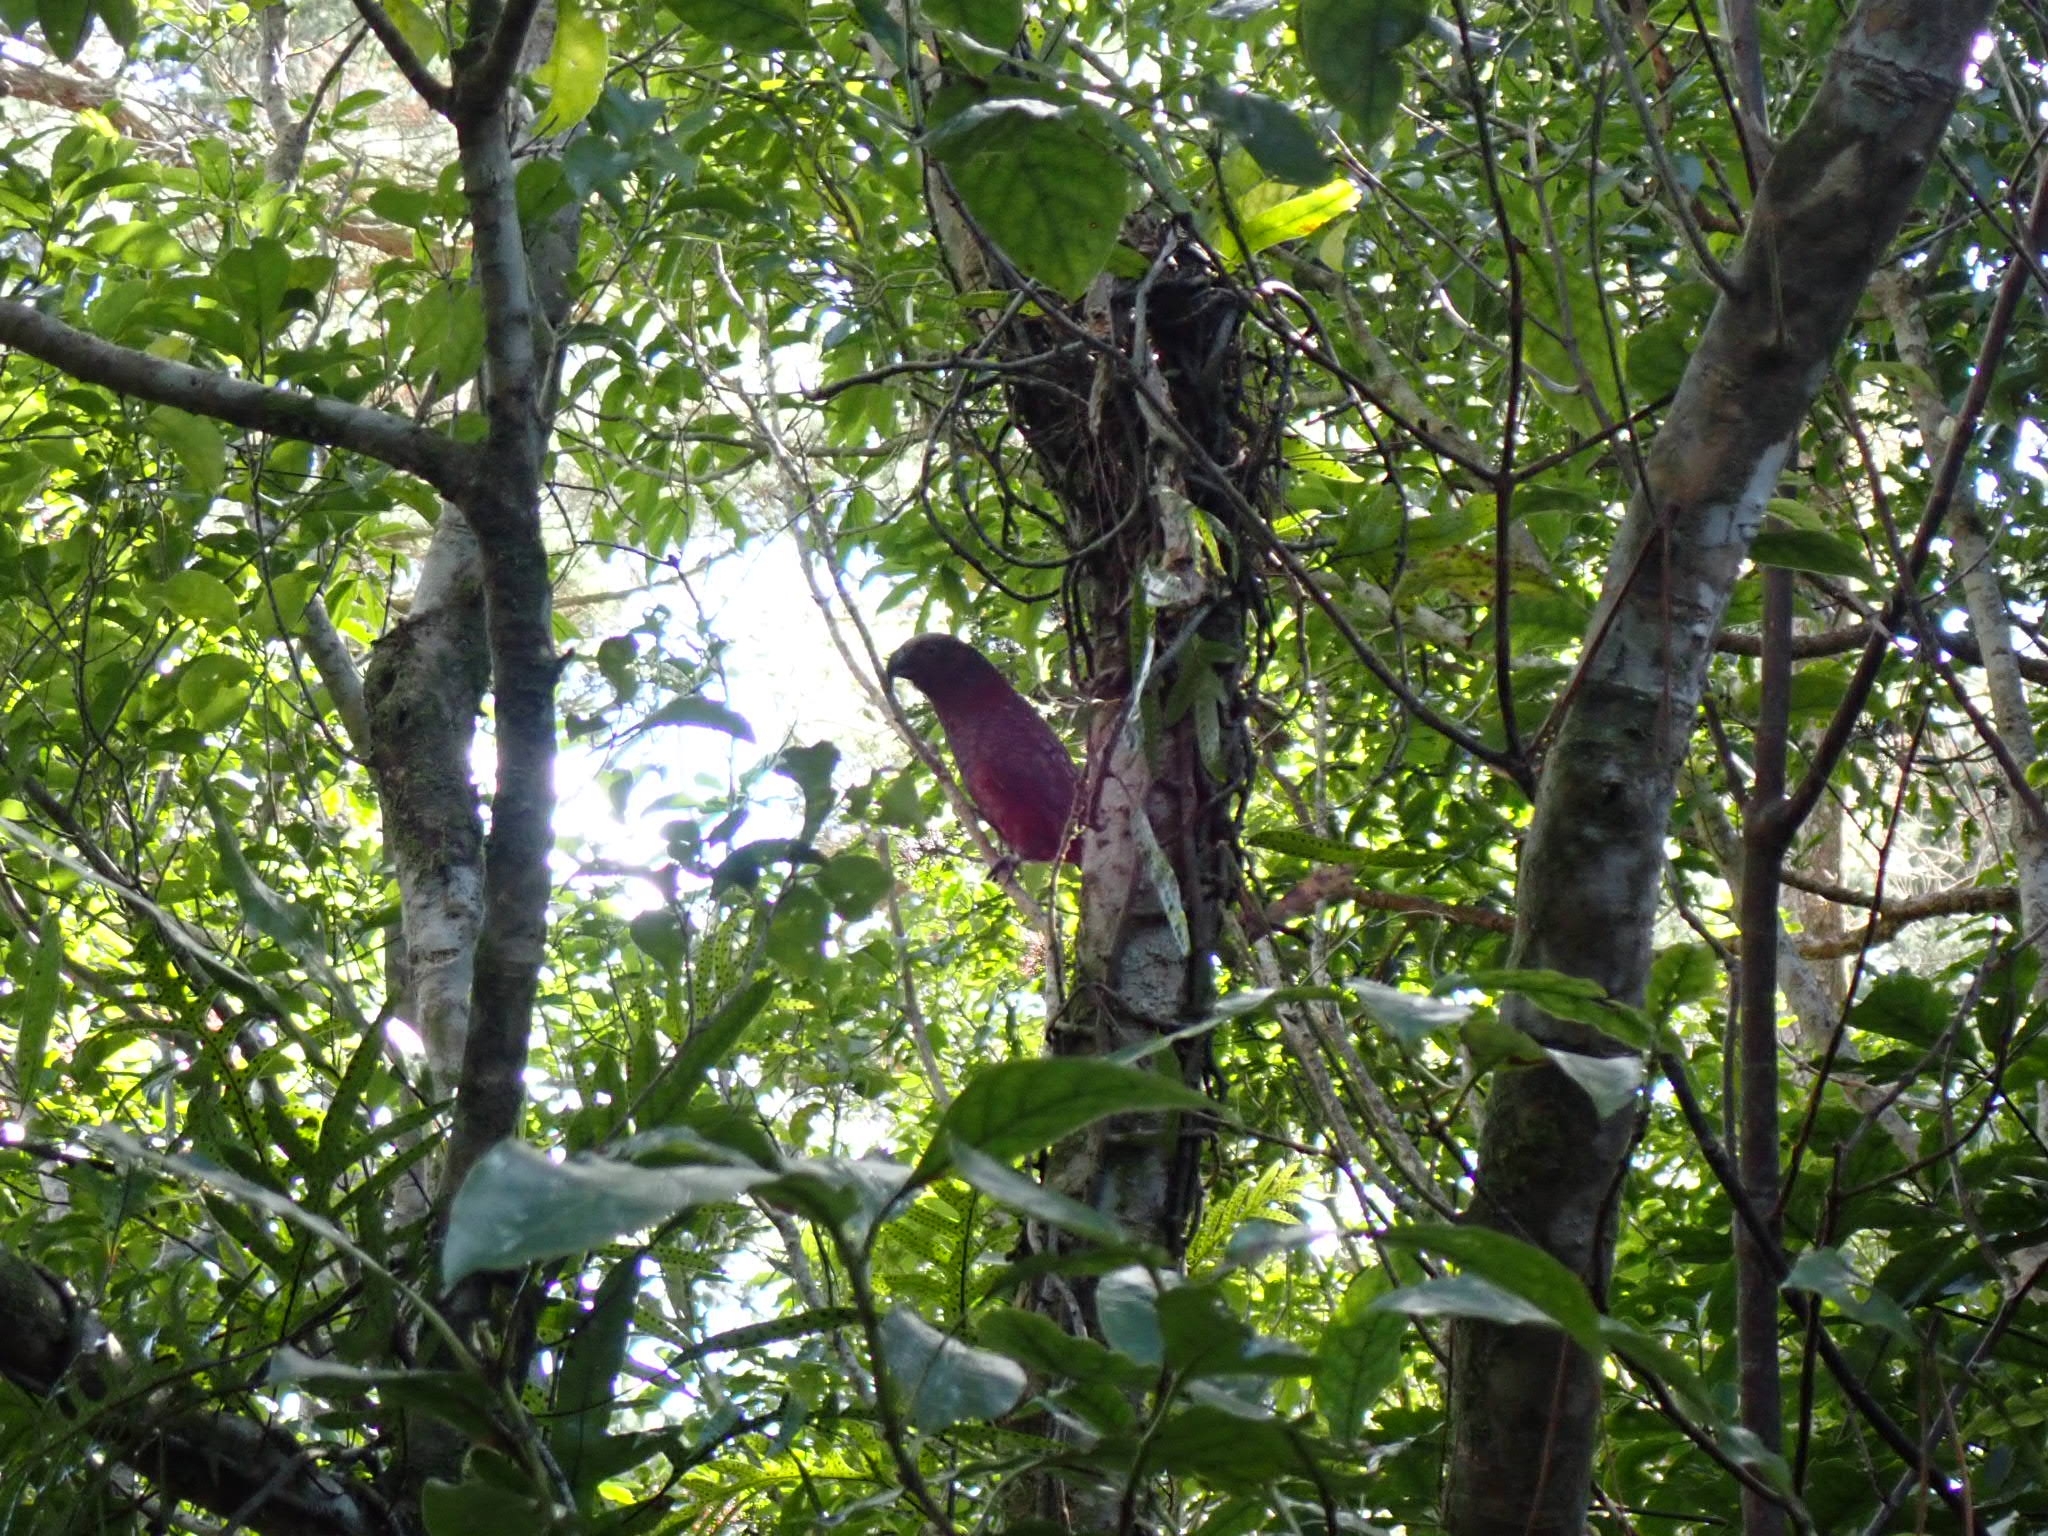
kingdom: Animalia
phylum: Chordata
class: Aves
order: Psittaciformes
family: Psittacidae
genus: Nestor
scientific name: Nestor meridionalis
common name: New zealand kaka
